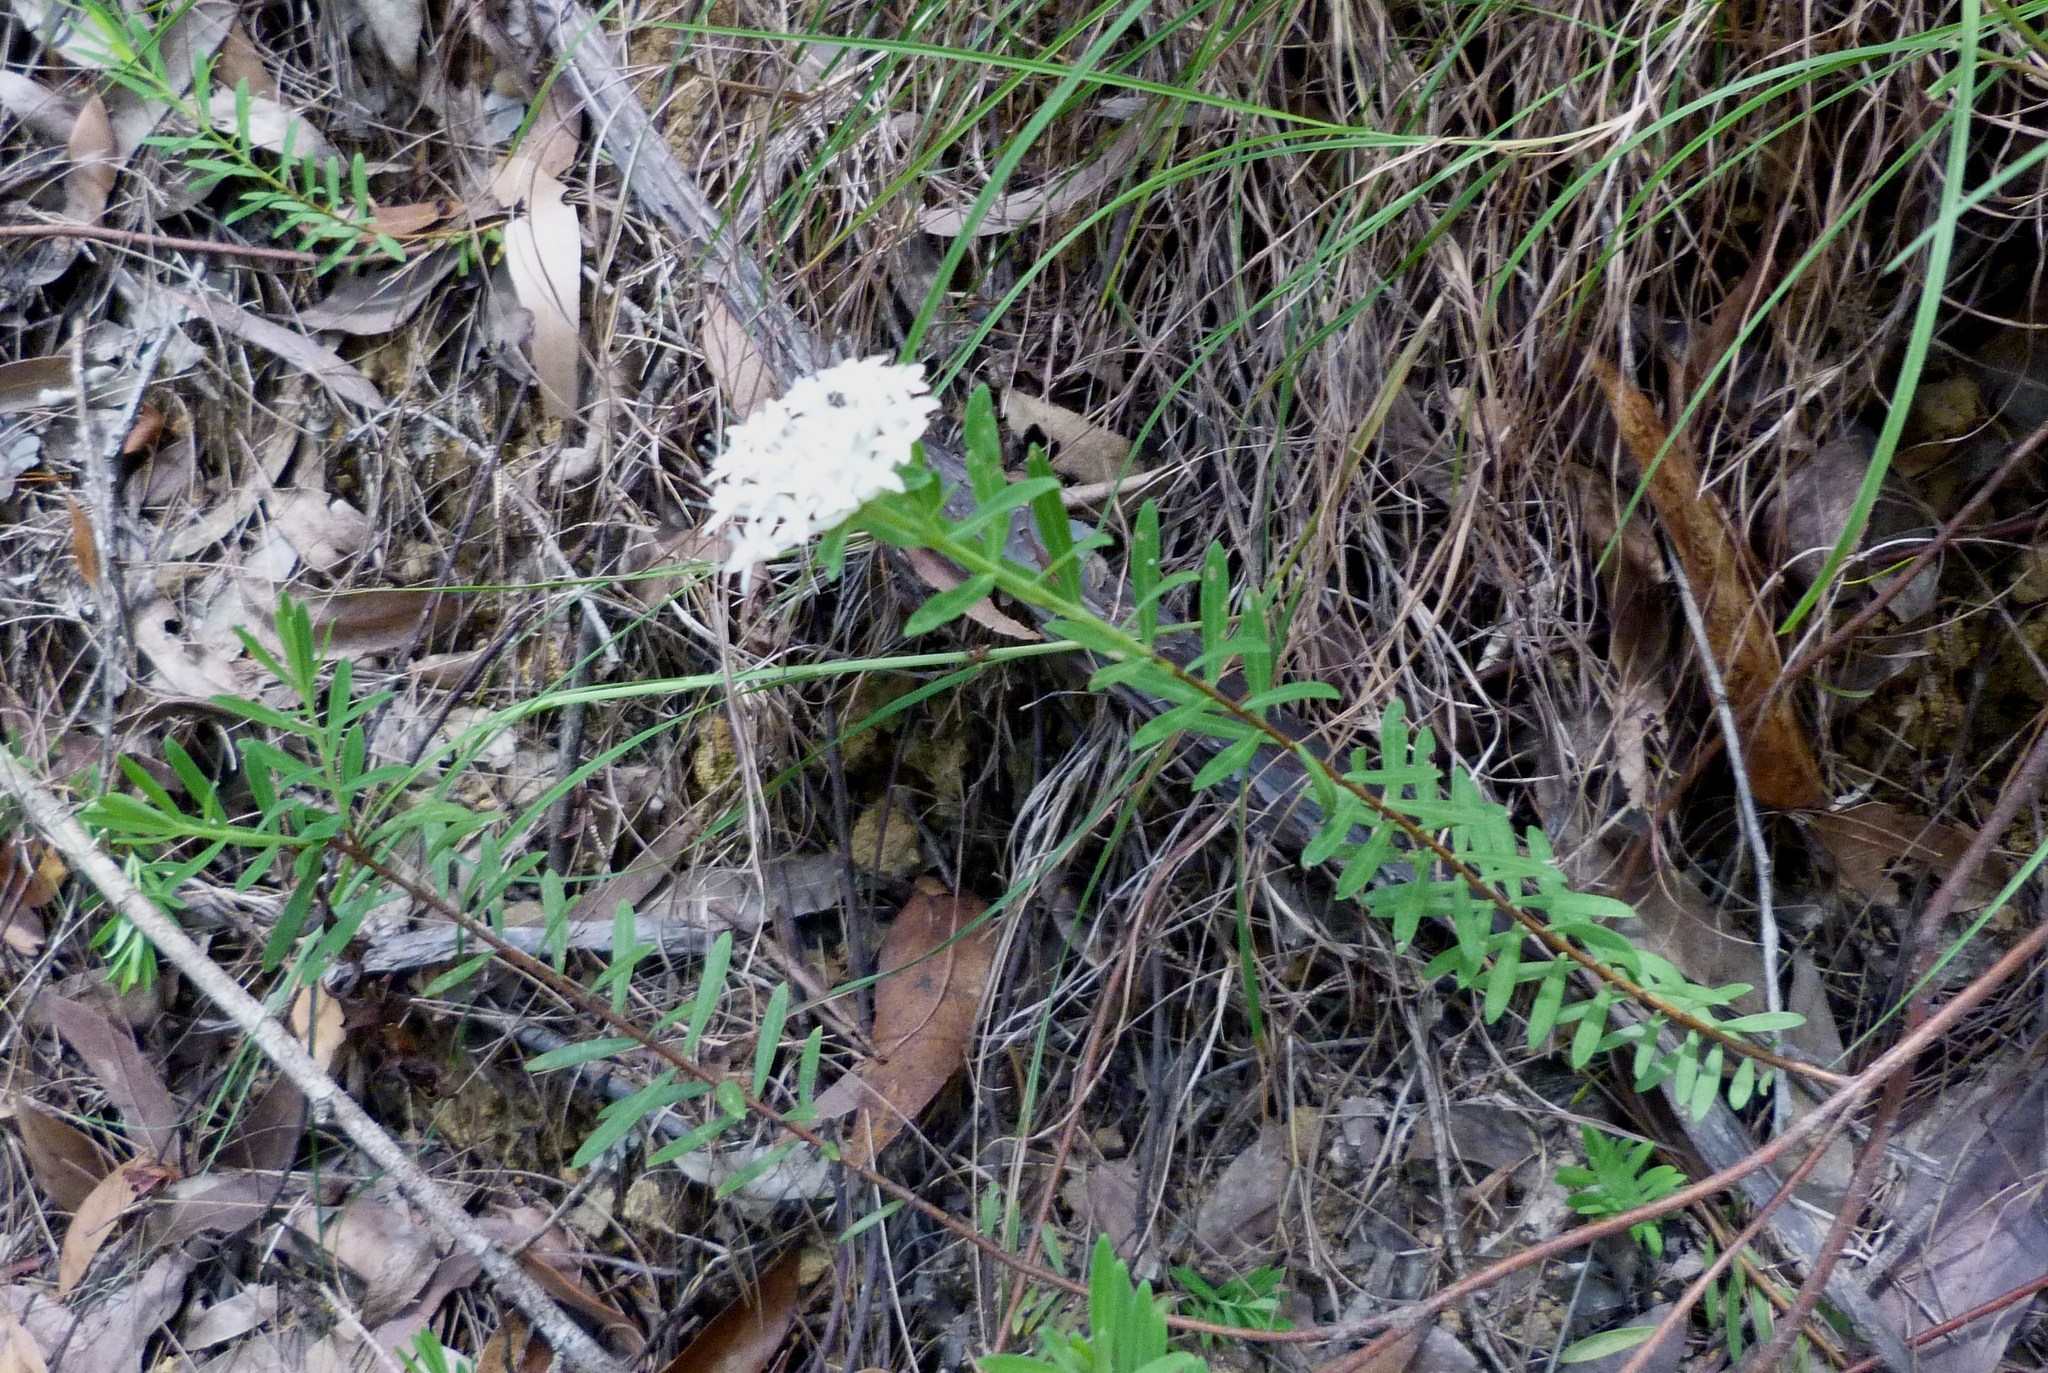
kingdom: Plantae
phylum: Tracheophyta
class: Magnoliopsida
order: Malvales
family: Thymelaeaceae
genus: Pimelea
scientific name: Pimelea linifolia
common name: Queen-of-the-bush
